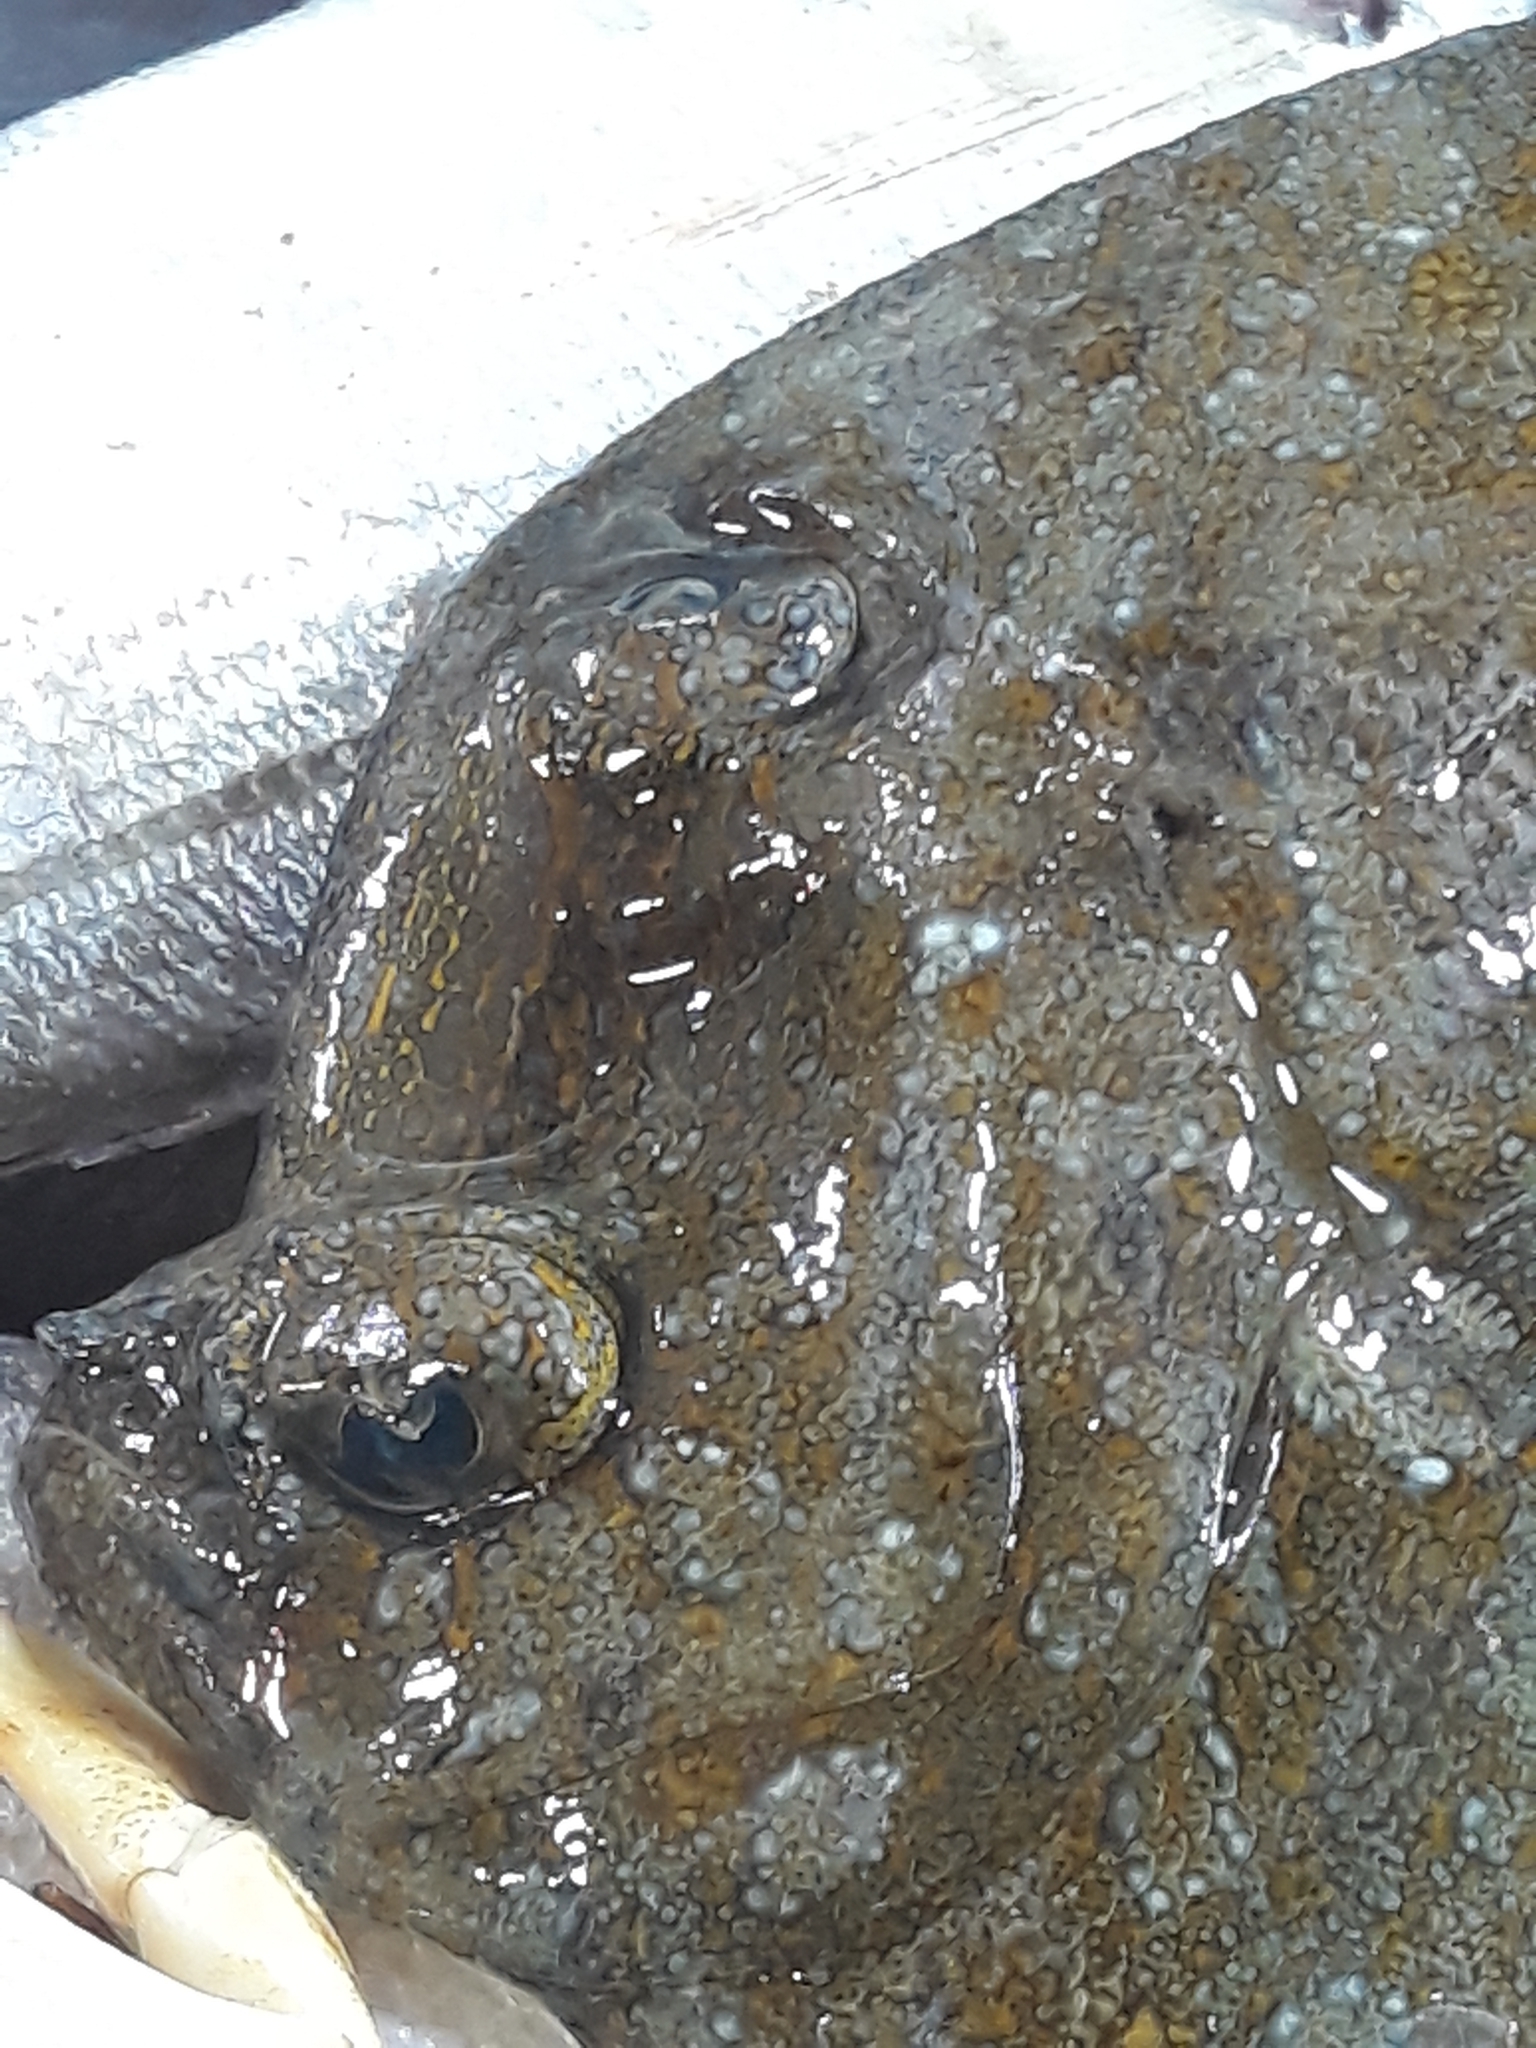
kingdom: Animalia
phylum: Chordata
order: Pleuronectiformes
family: Bothidae
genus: Bothus
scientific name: Bothus podas
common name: Wide-eyed flounder
